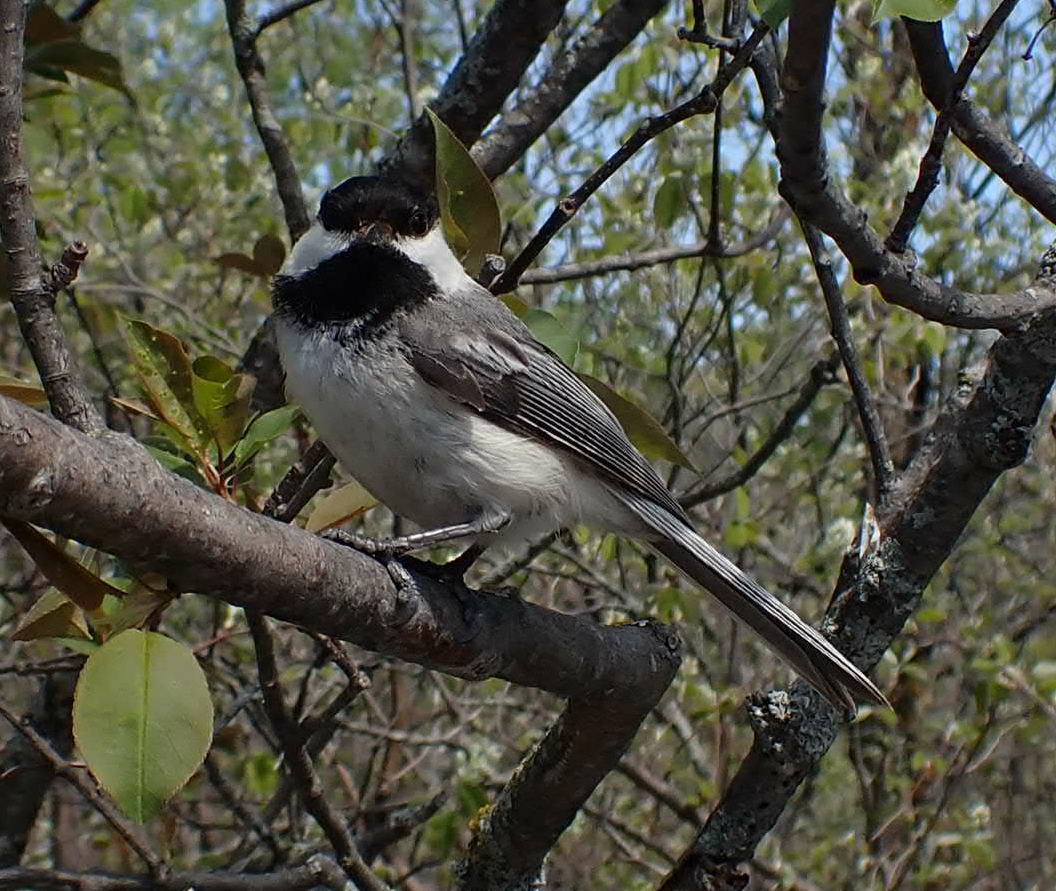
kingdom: Animalia
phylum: Chordata
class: Aves
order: Passeriformes
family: Paridae
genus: Poecile
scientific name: Poecile atricapillus
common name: Black-capped chickadee
